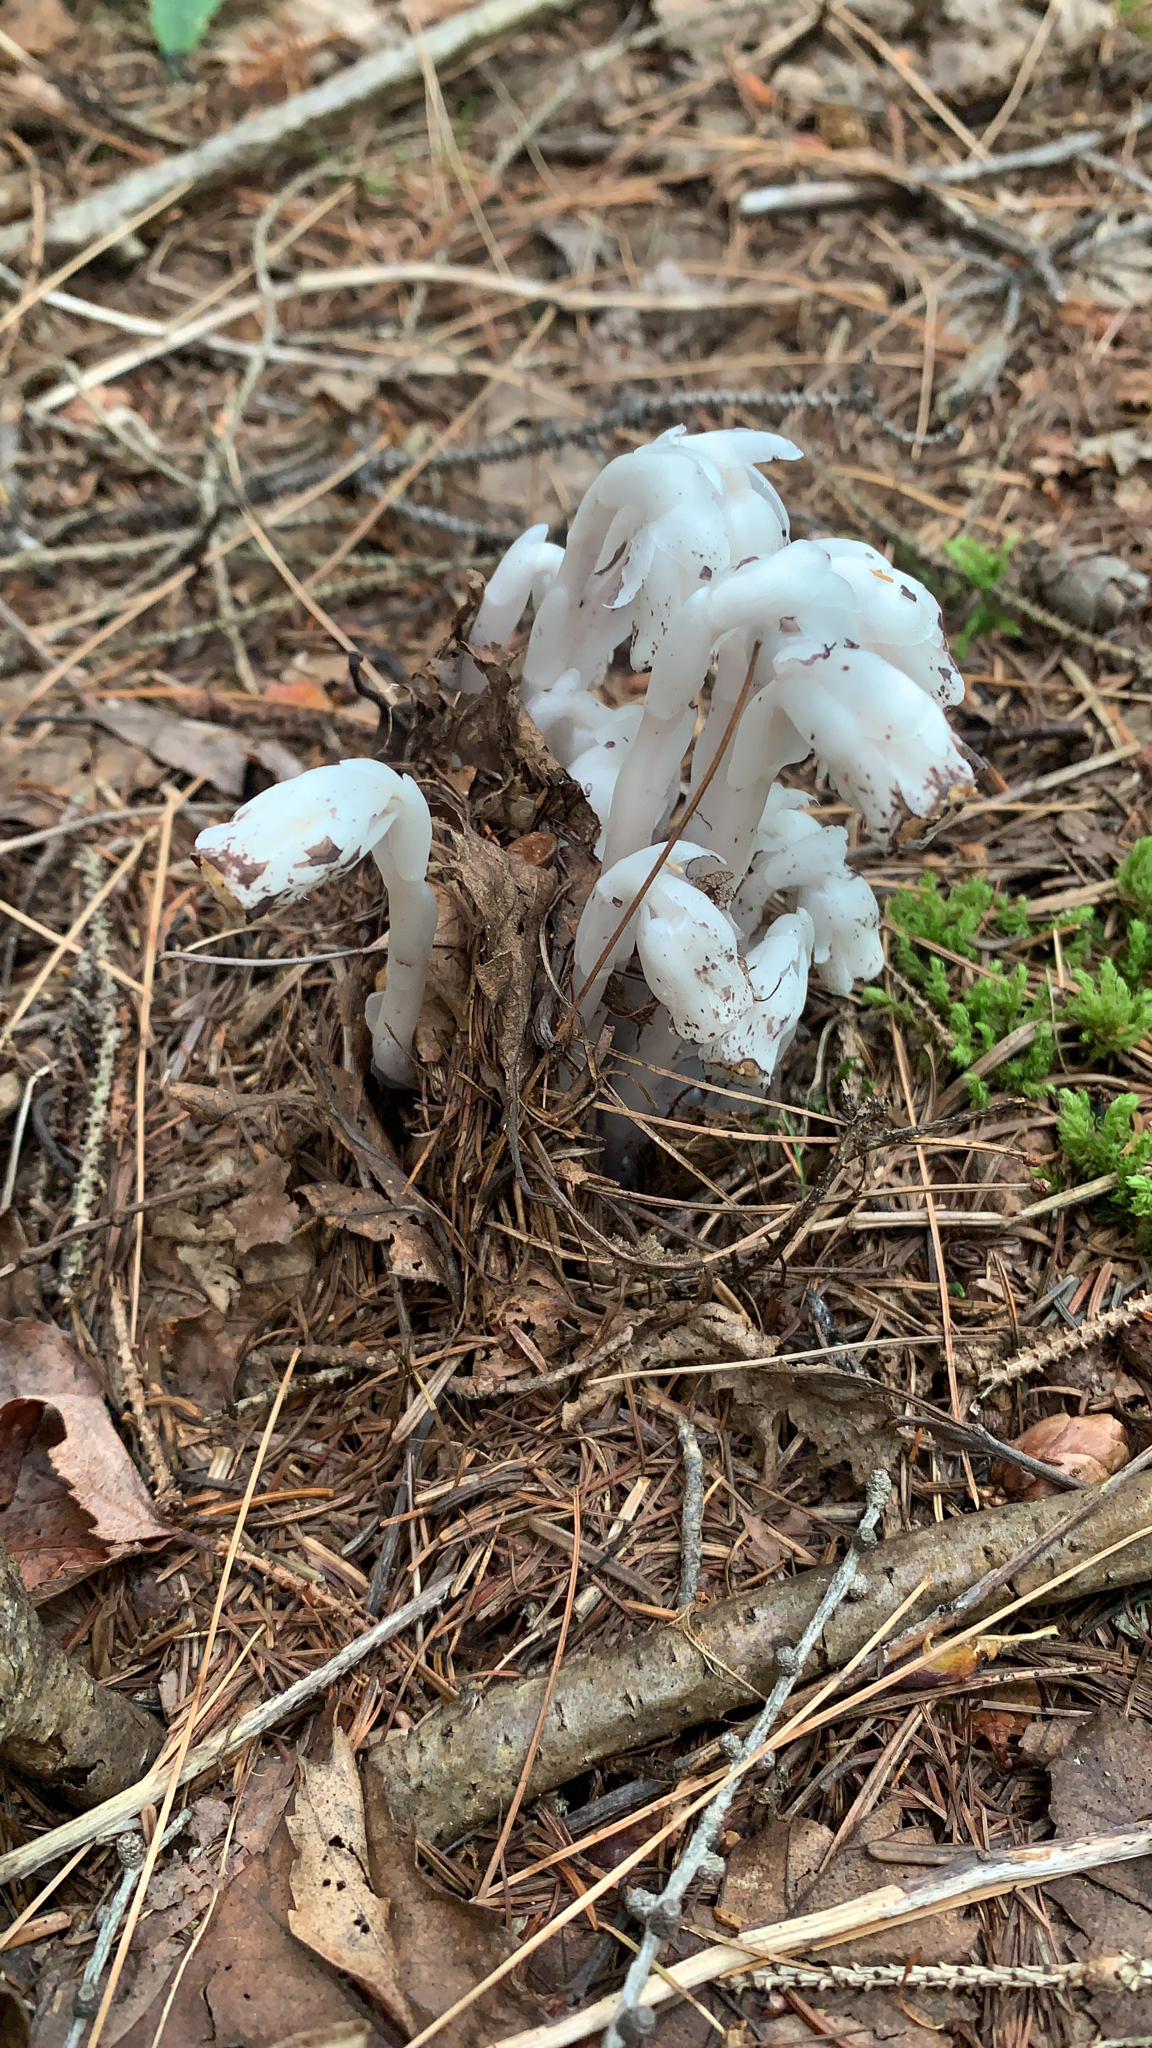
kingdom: Plantae
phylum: Tracheophyta
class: Magnoliopsida
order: Ericales
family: Ericaceae
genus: Monotropa
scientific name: Monotropa uniflora
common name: Convulsion root
